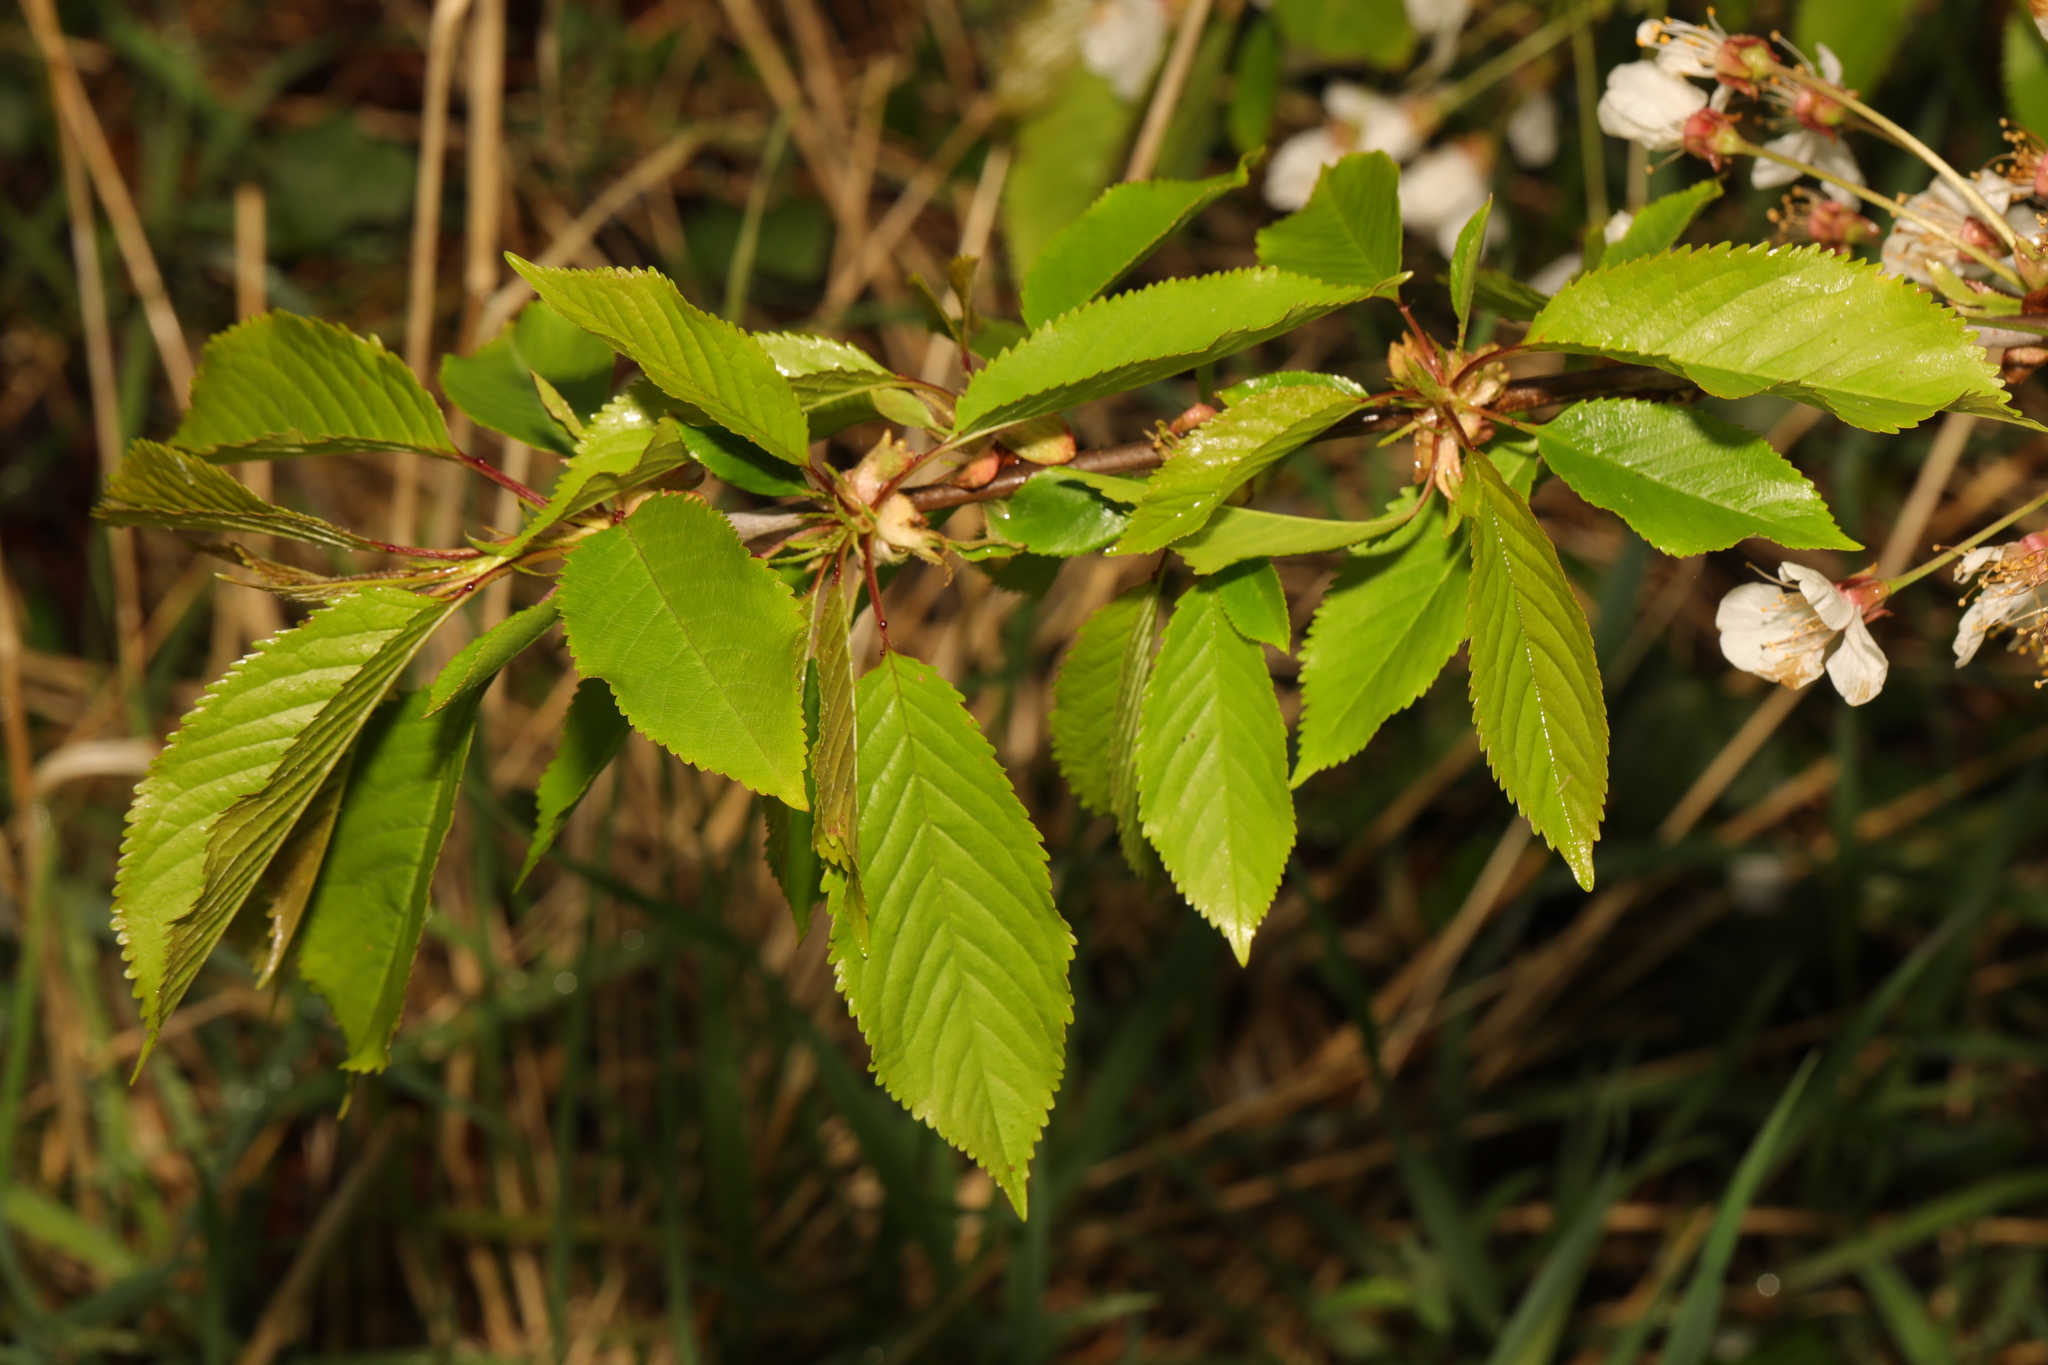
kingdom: Plantae
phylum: Tracheophyta
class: Magnoliopsida
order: Rosales
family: Rosaceae
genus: Prunus
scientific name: Prunus avium
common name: Sweet cherry
